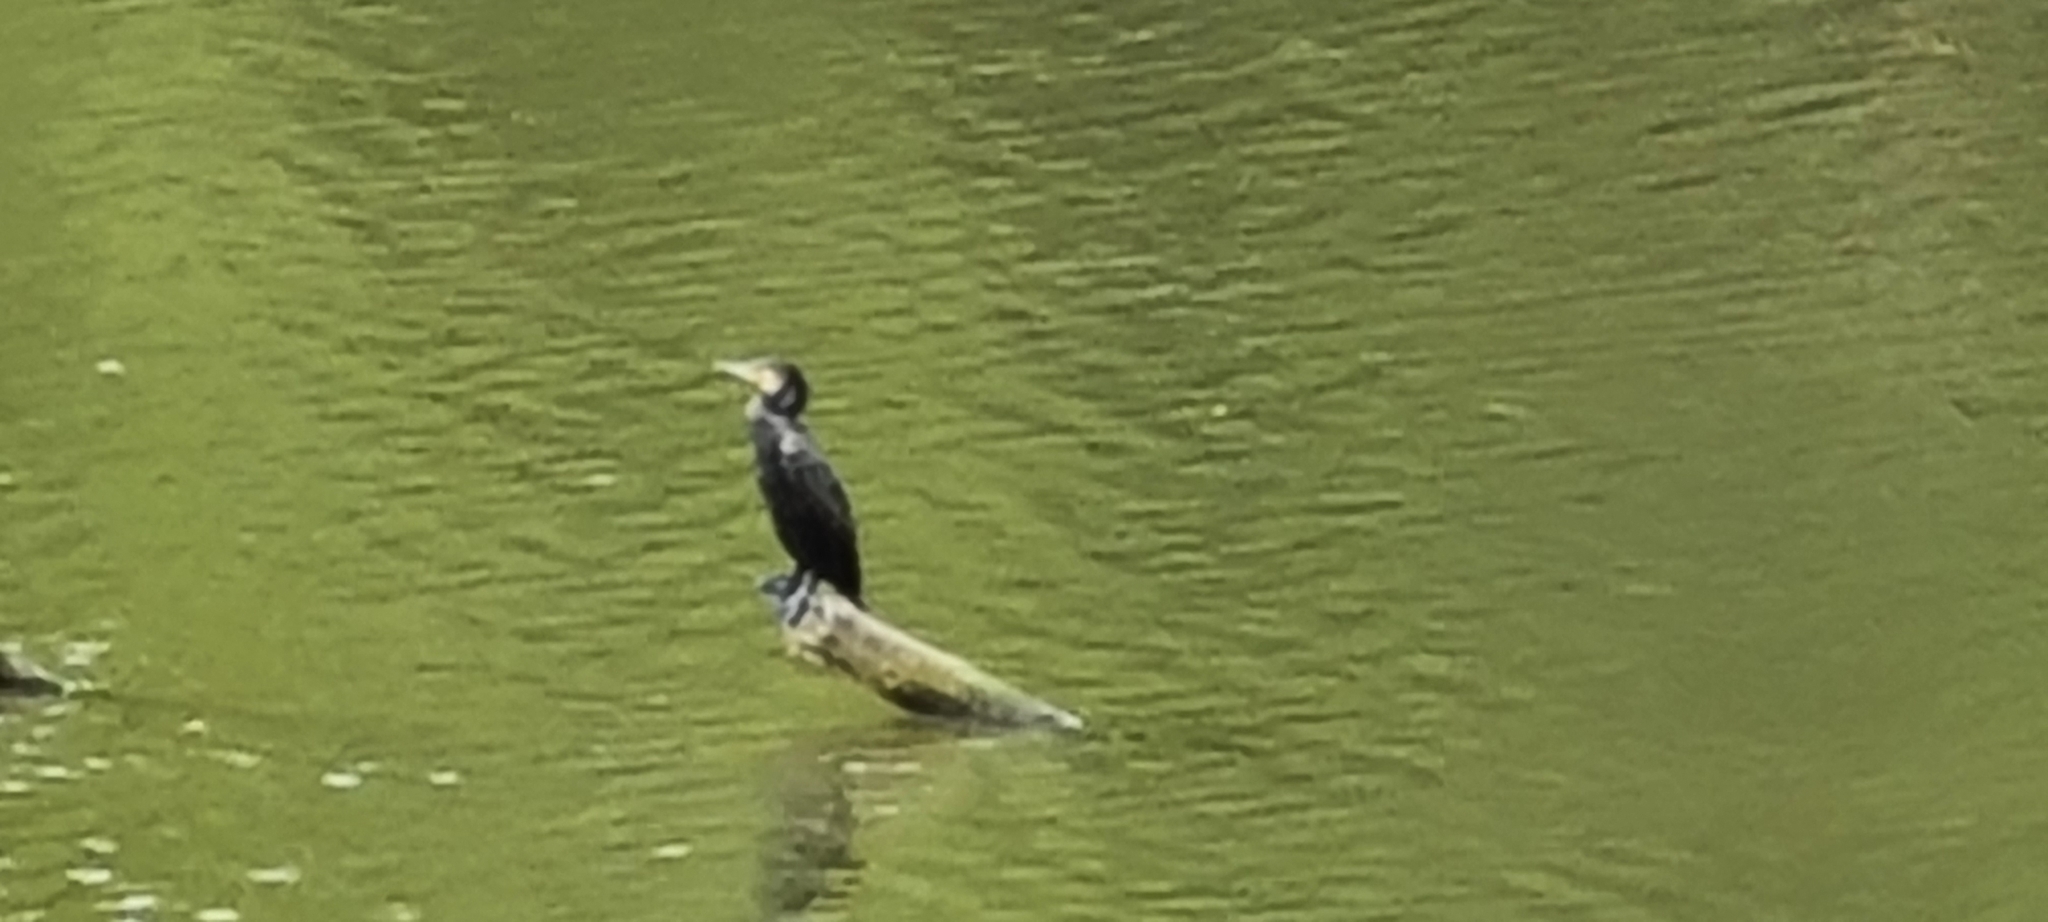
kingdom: Animalia
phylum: Chordata
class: Aves
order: Suliformes
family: Phalacrocoracidae
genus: Phalacrocorax
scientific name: Phalacrocorax carbo
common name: Great cormorant
